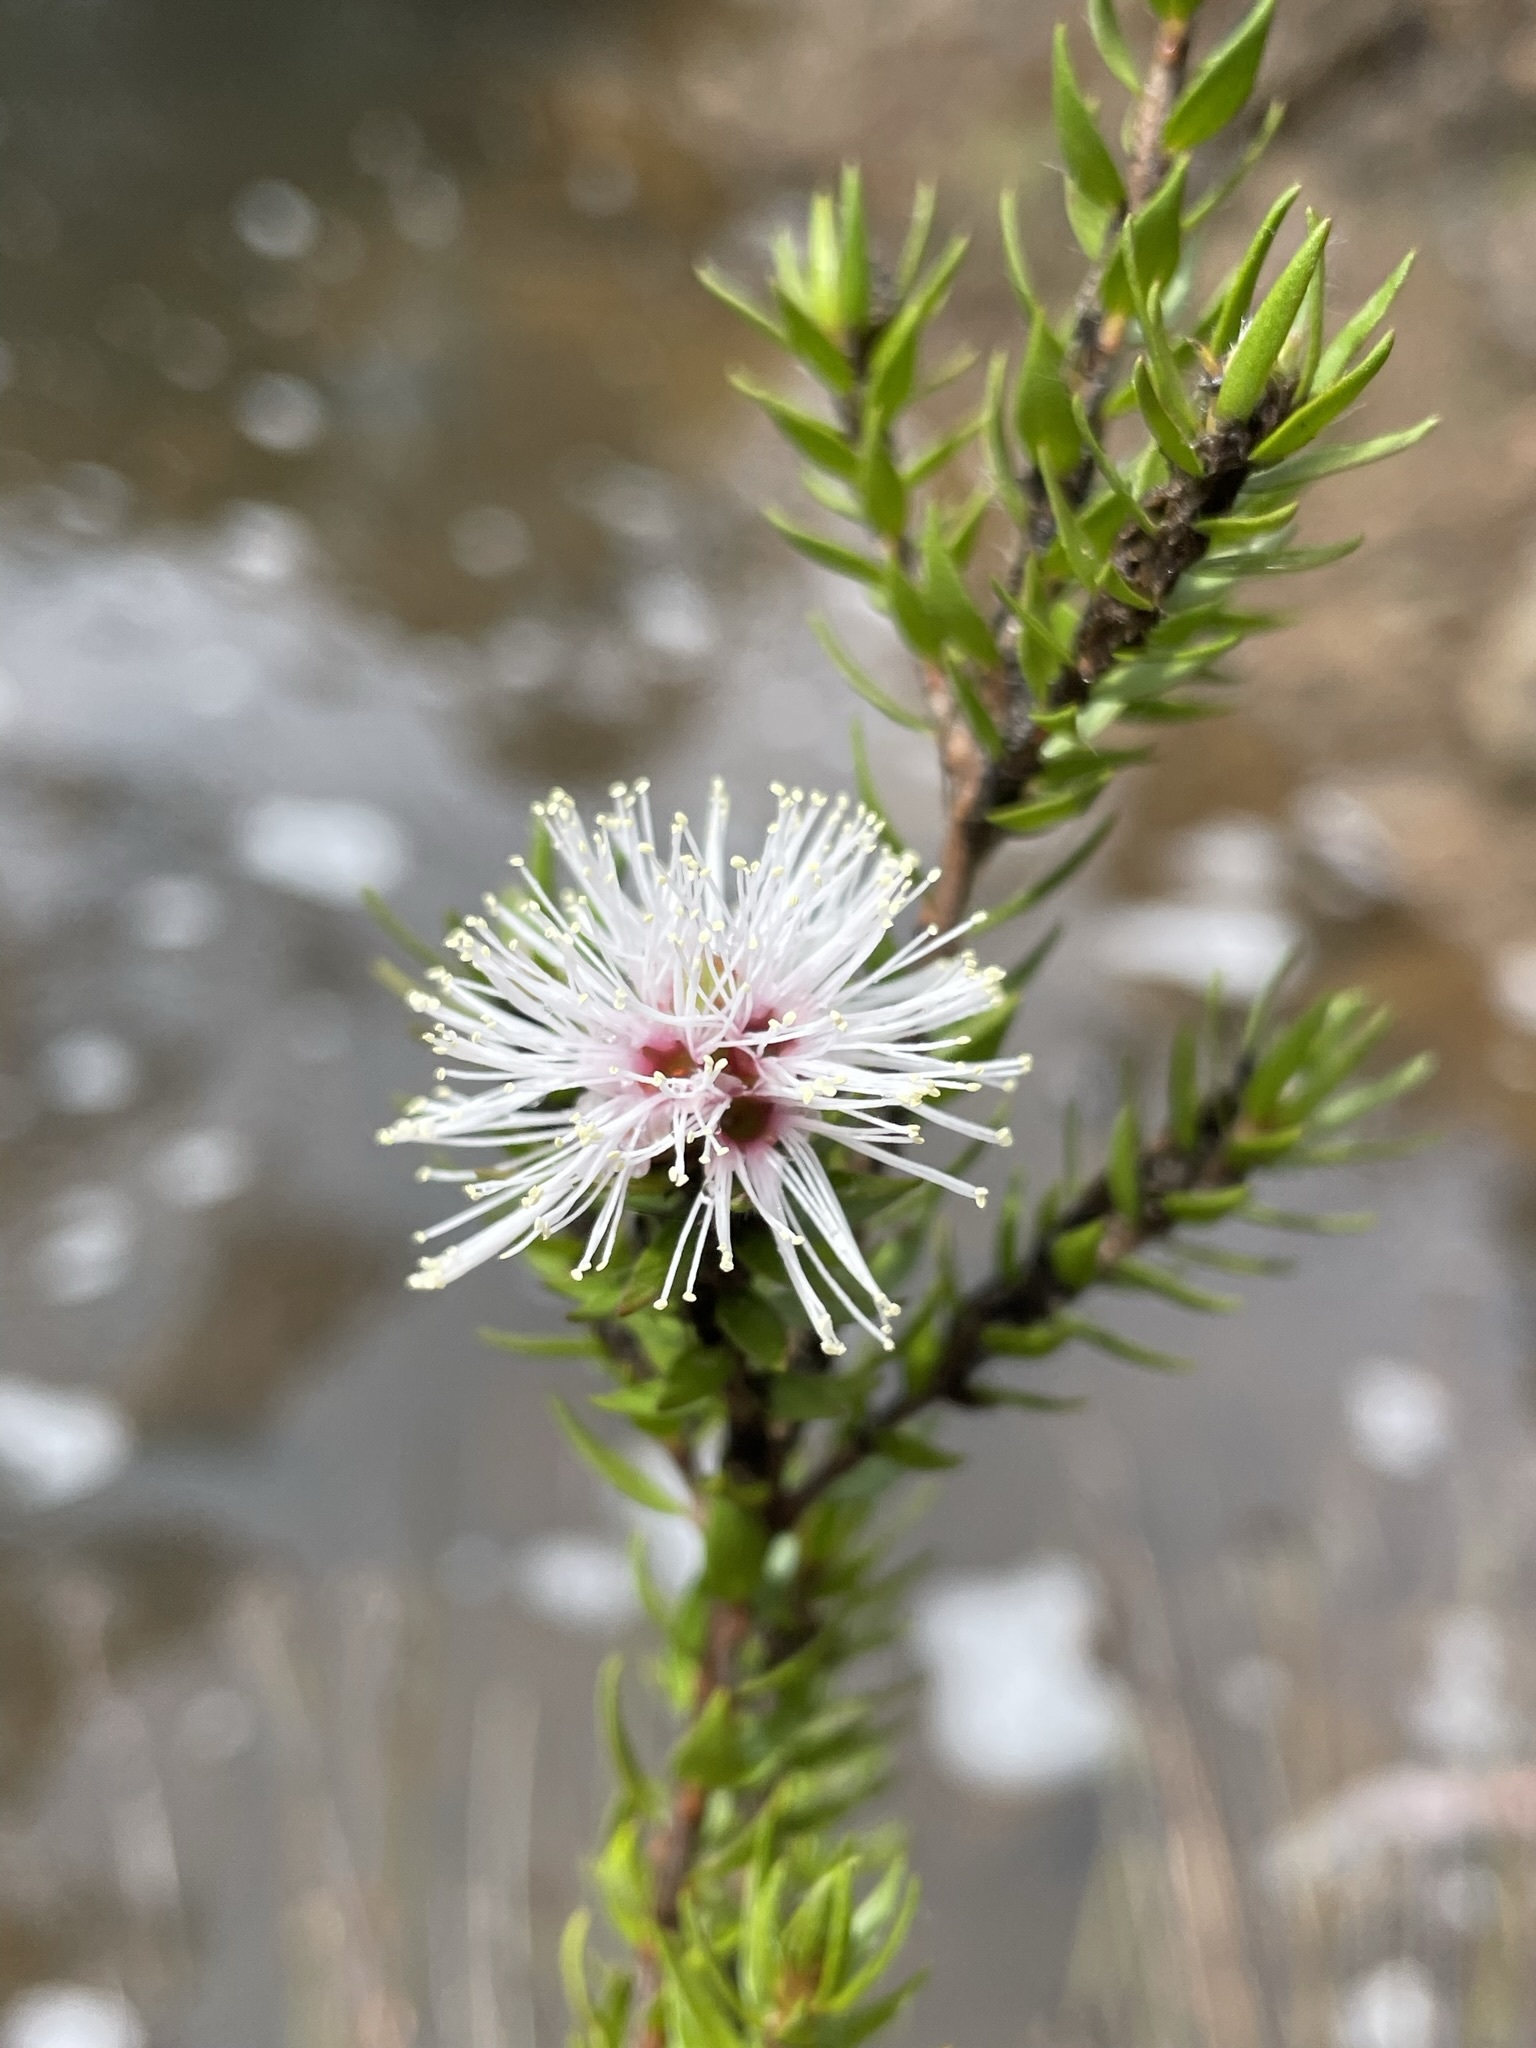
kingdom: Plantae
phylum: Tracheophyta
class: Magnoliopsida
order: Myrtales
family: Myrtaceae
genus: Melaleuca
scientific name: Melaleuca squamea
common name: Swamp melaleuca
